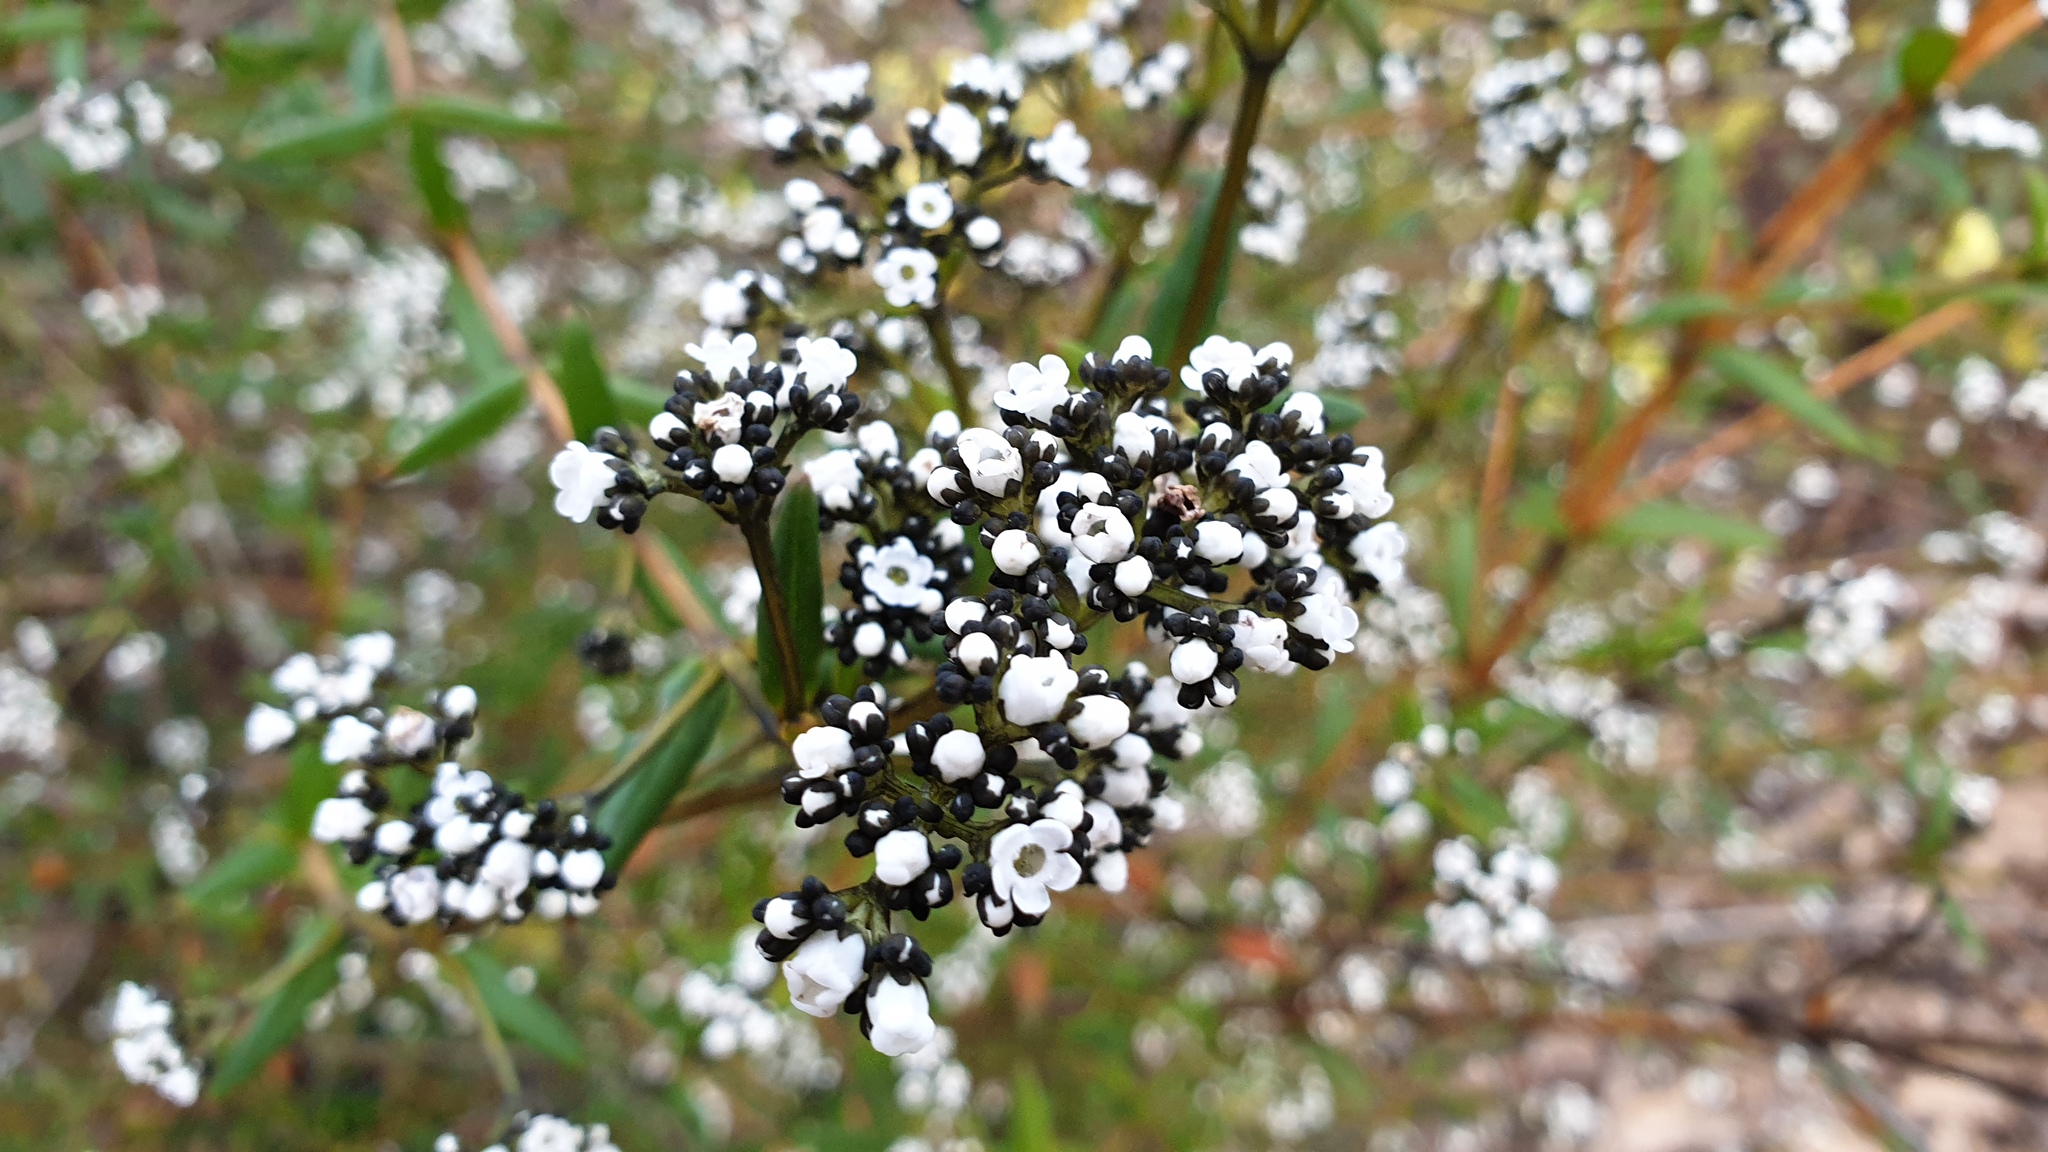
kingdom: Plantae
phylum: Tracheophyta
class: Magnoliopsida
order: Gentianales
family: Loganiaceae
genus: Logania
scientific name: Logania recurva
